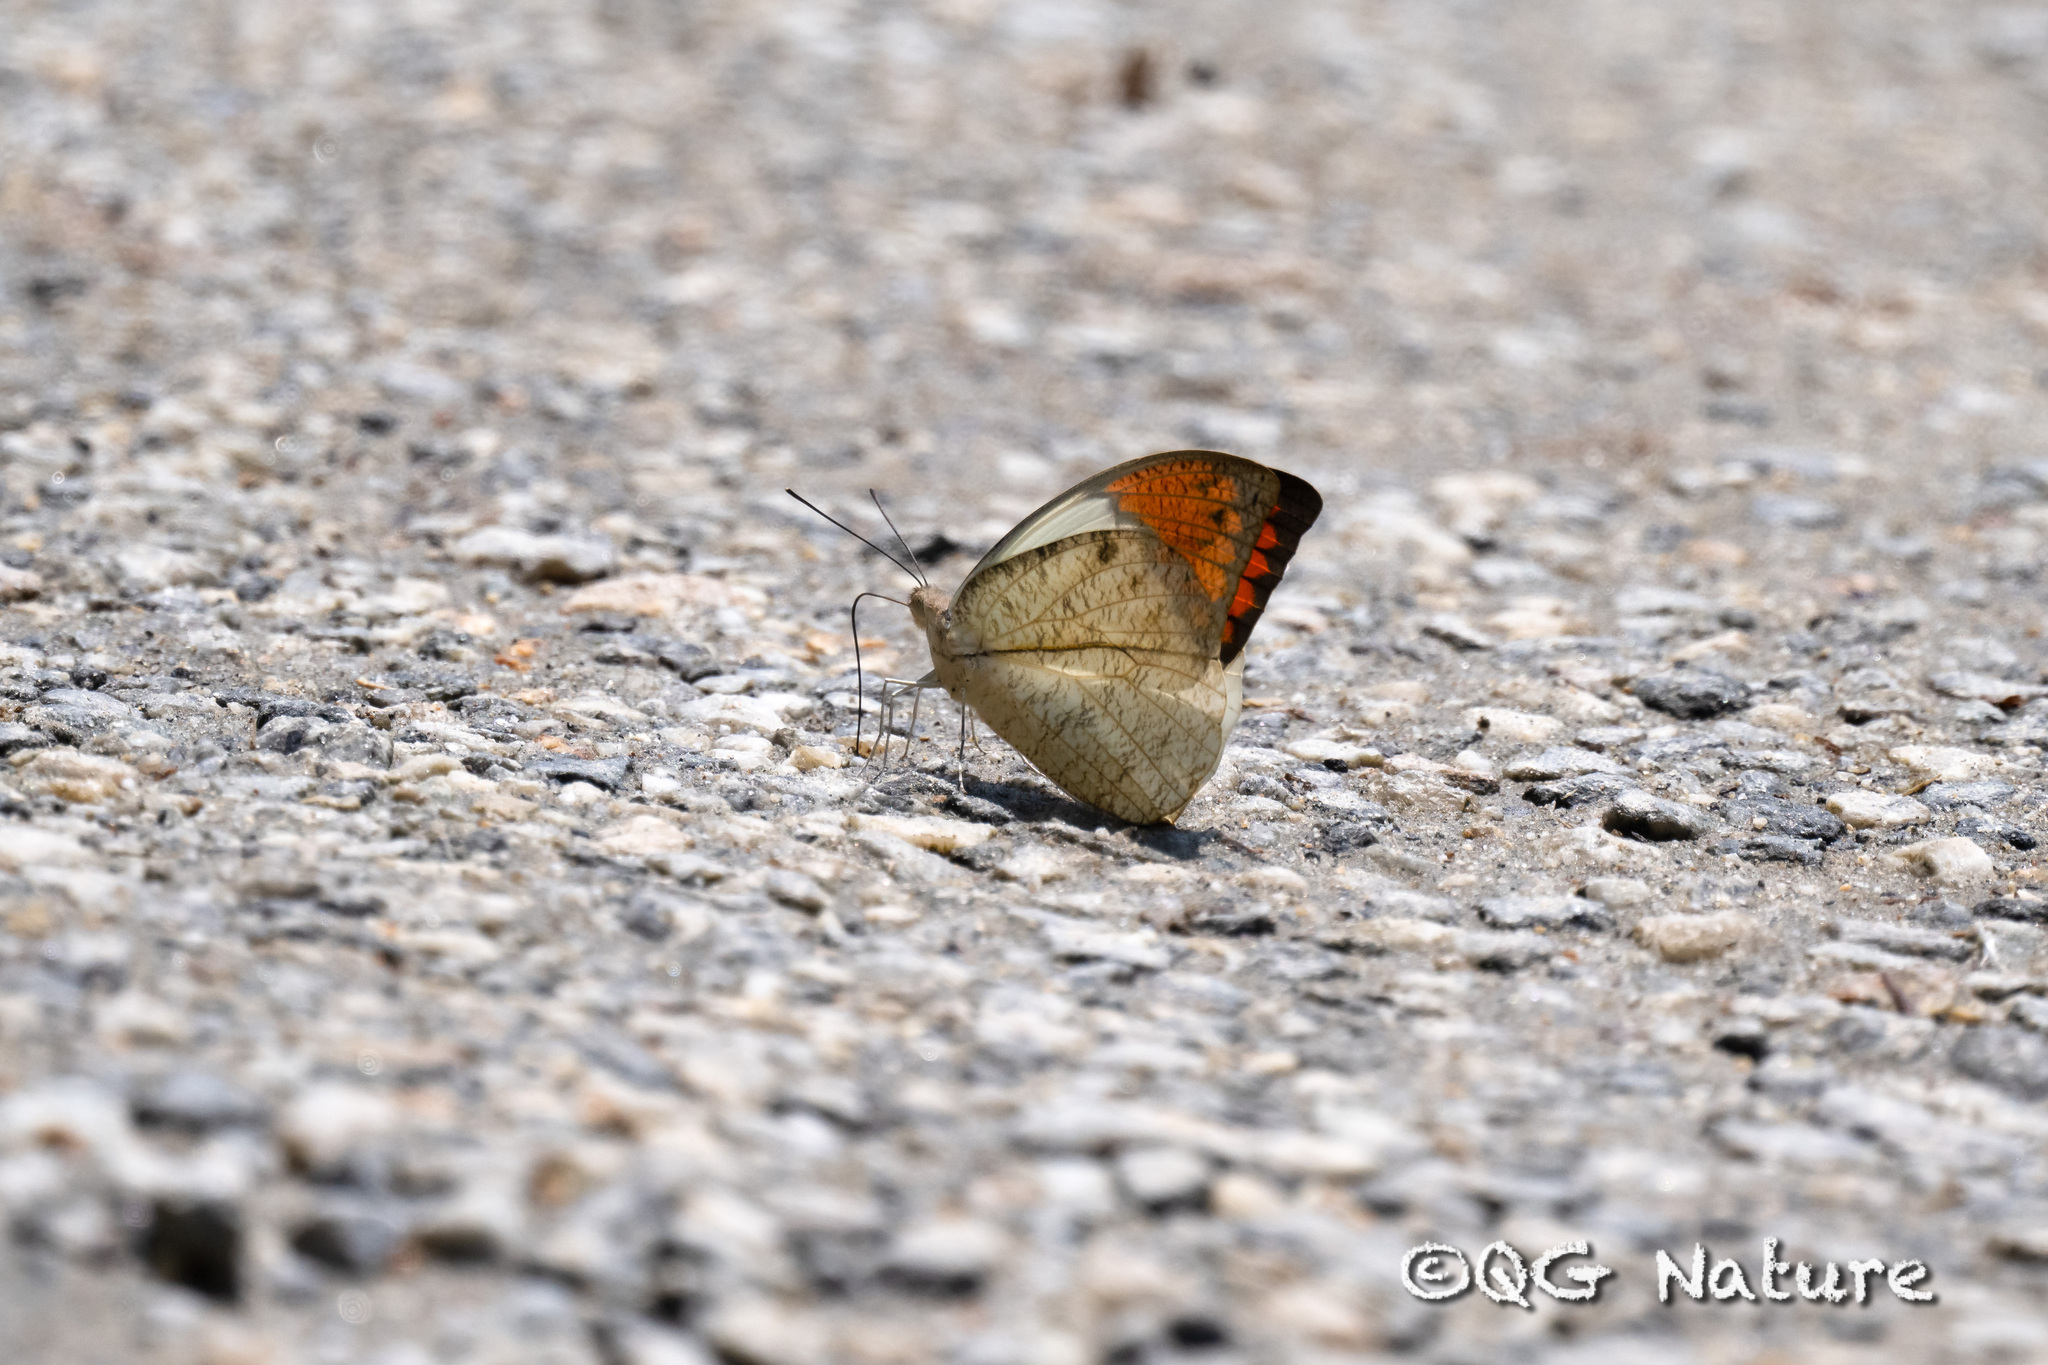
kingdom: Animalia
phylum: Arthropoda
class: Insecta
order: Lepidoptera
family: Pieridae
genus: Hebomoia
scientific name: Hebomoia glaucippe
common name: Great orange tip
